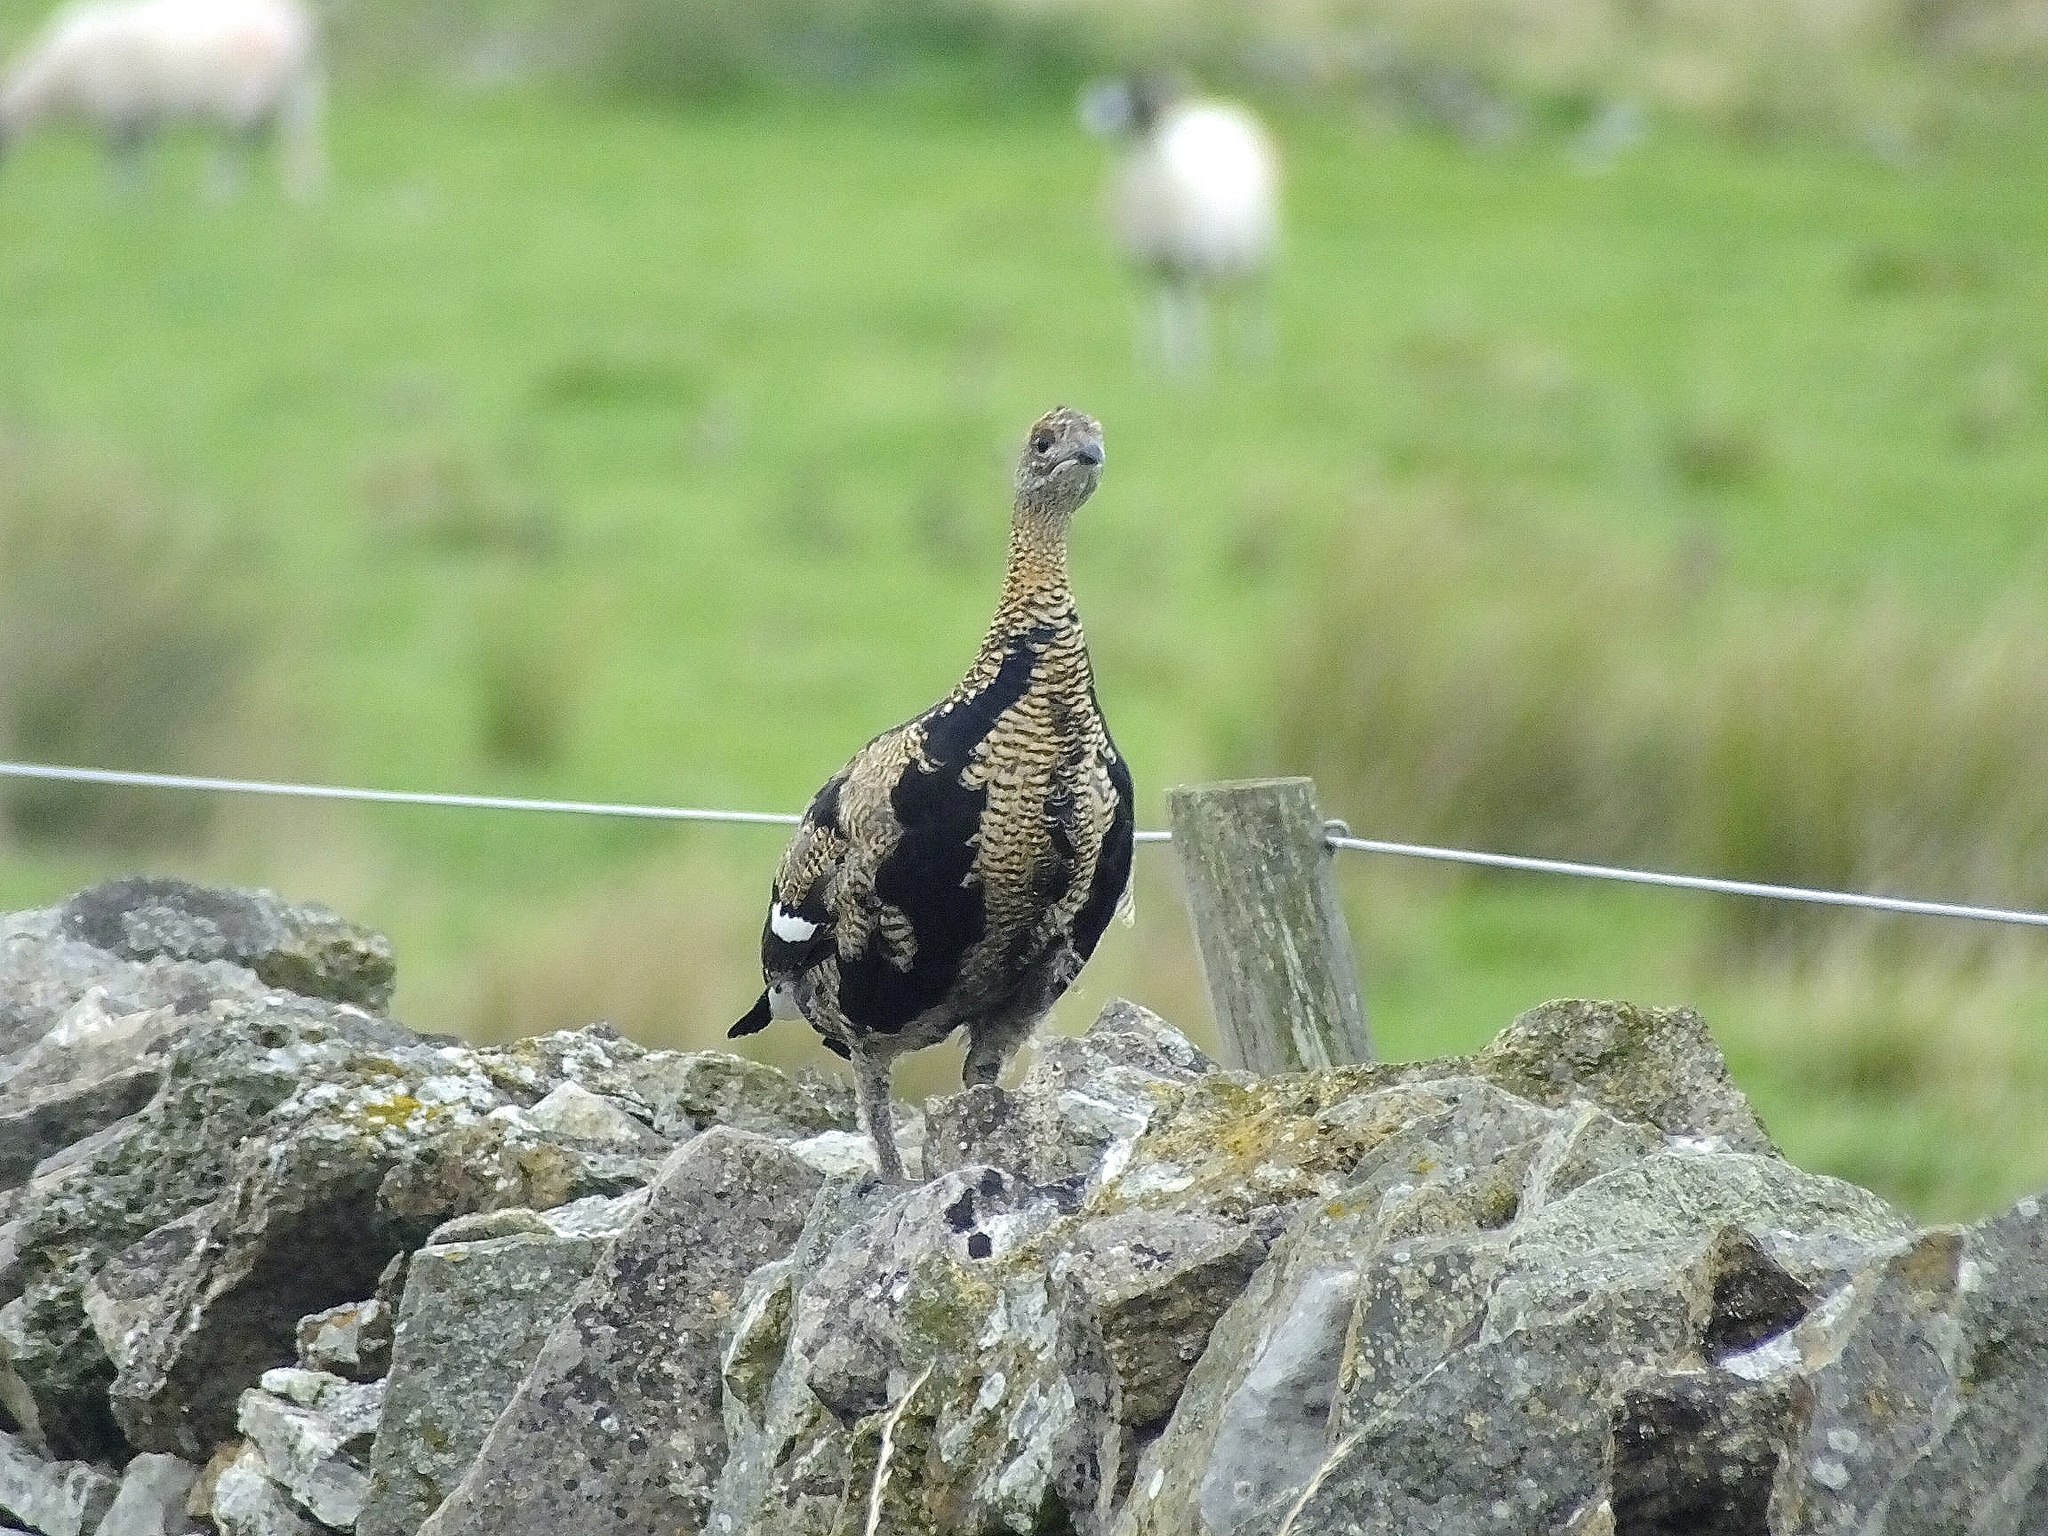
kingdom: Animalia
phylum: Chordata
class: Aves
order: Galliformes
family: Phasianidae
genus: Lyrurus
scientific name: Lyrurus tetrix
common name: Black grouse
